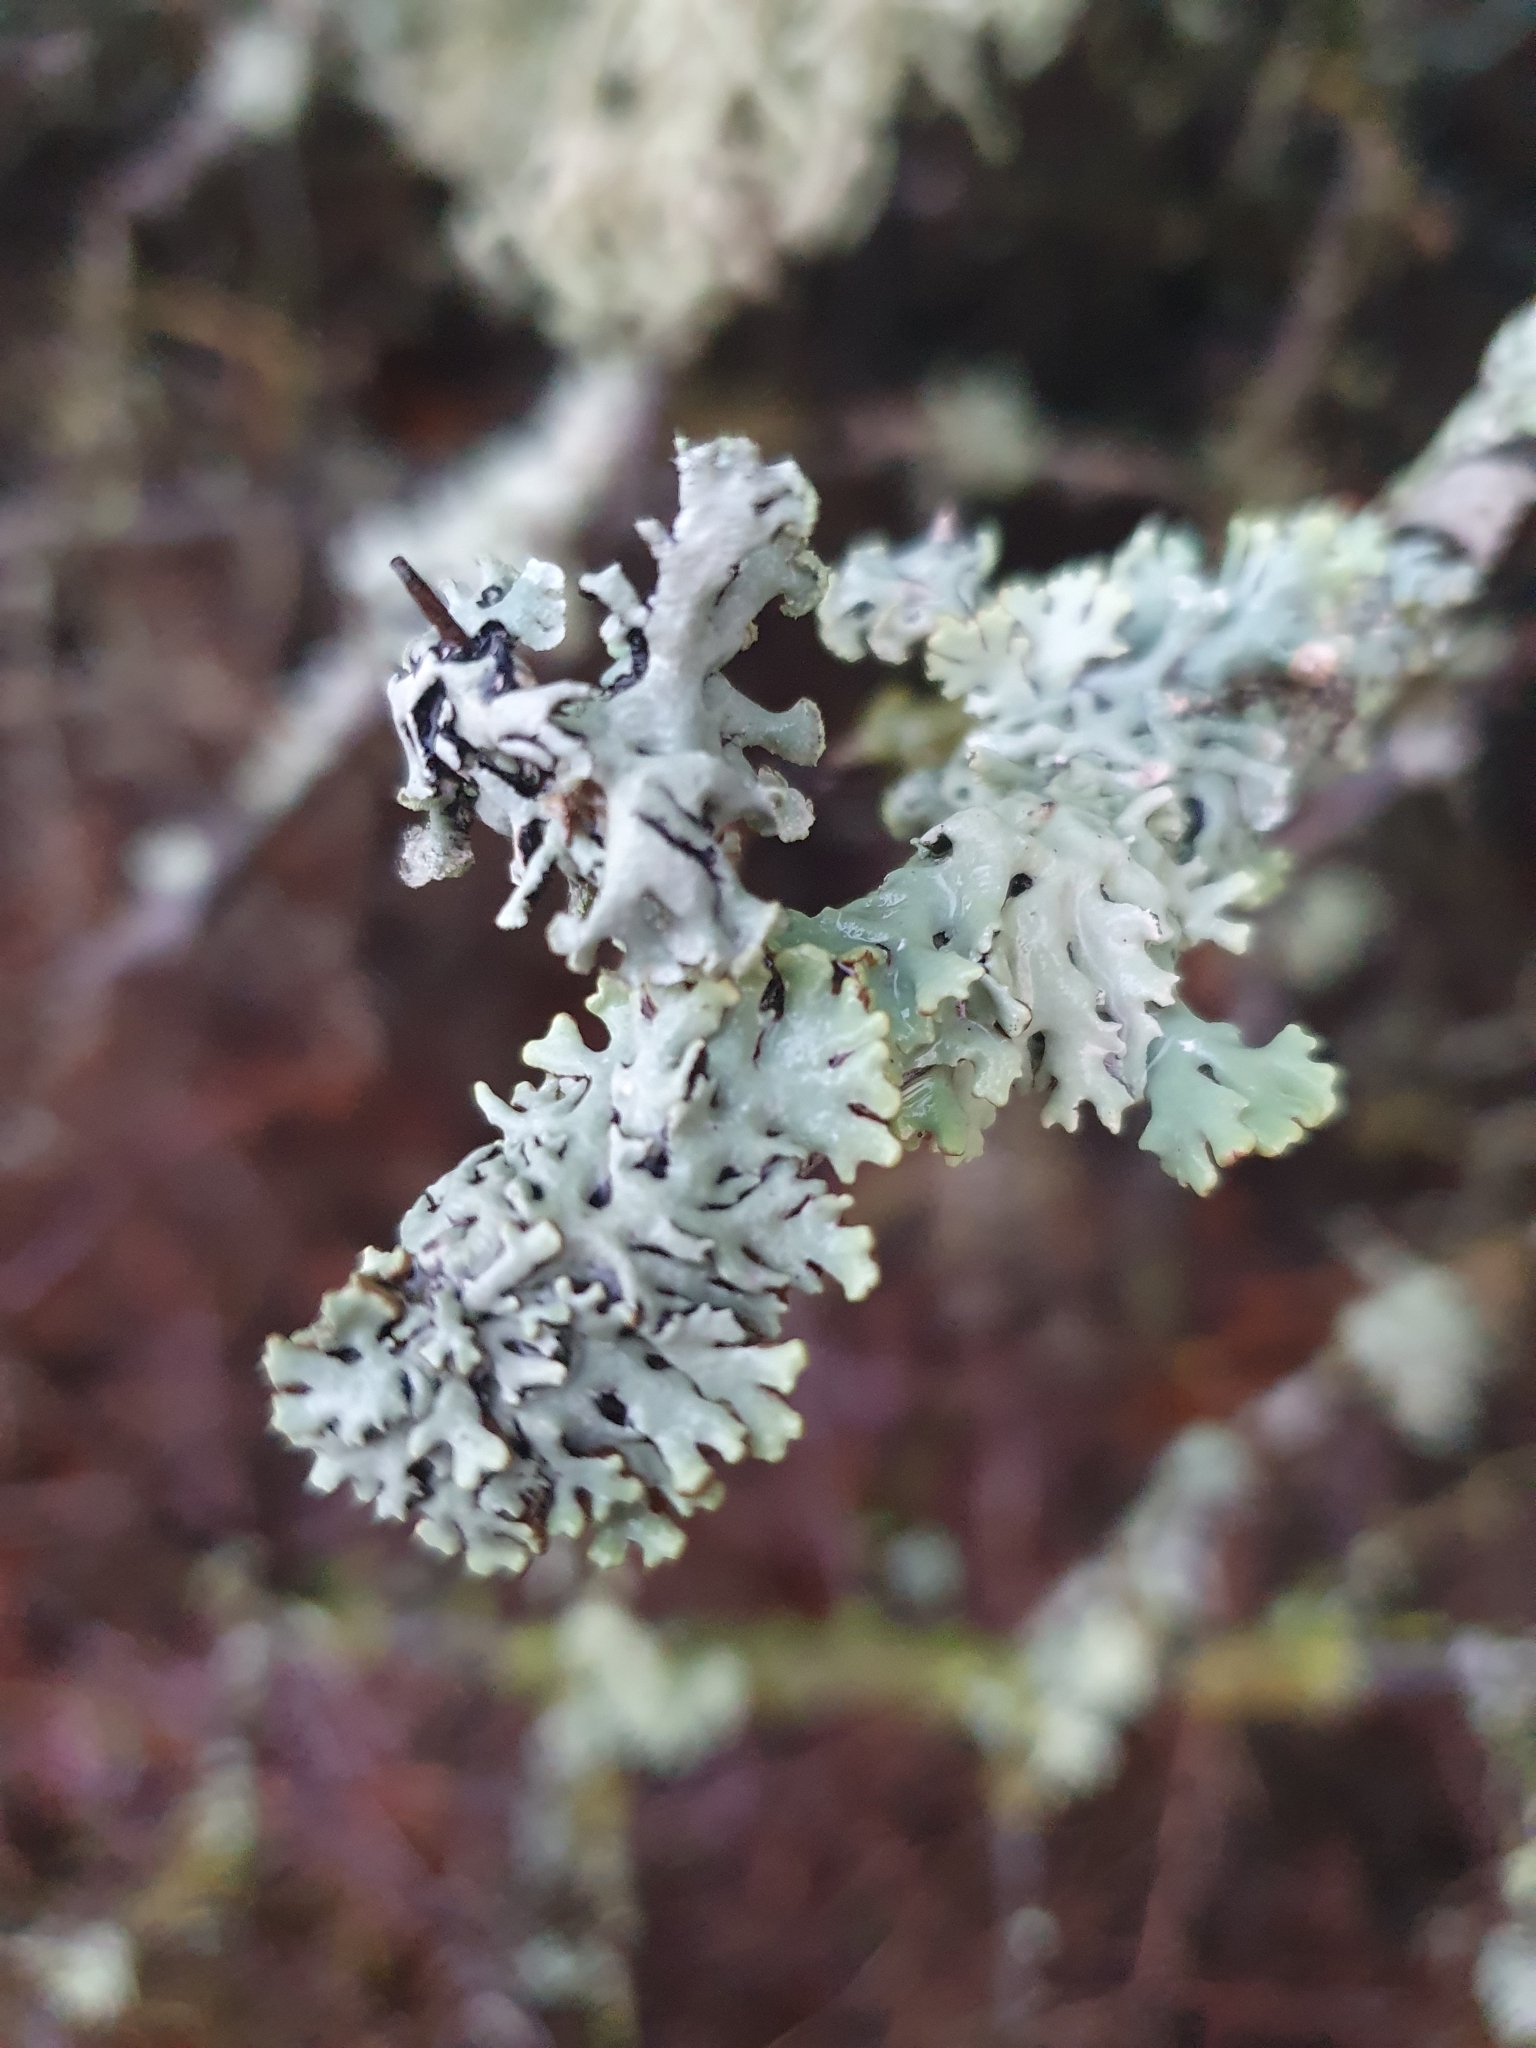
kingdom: Fungi
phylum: Ascomycota
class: Lecanoromycetes
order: Lecanorales
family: Parmeliaceae
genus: Hypogymnia
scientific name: Hypogymnia physodes
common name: Dark crottle
